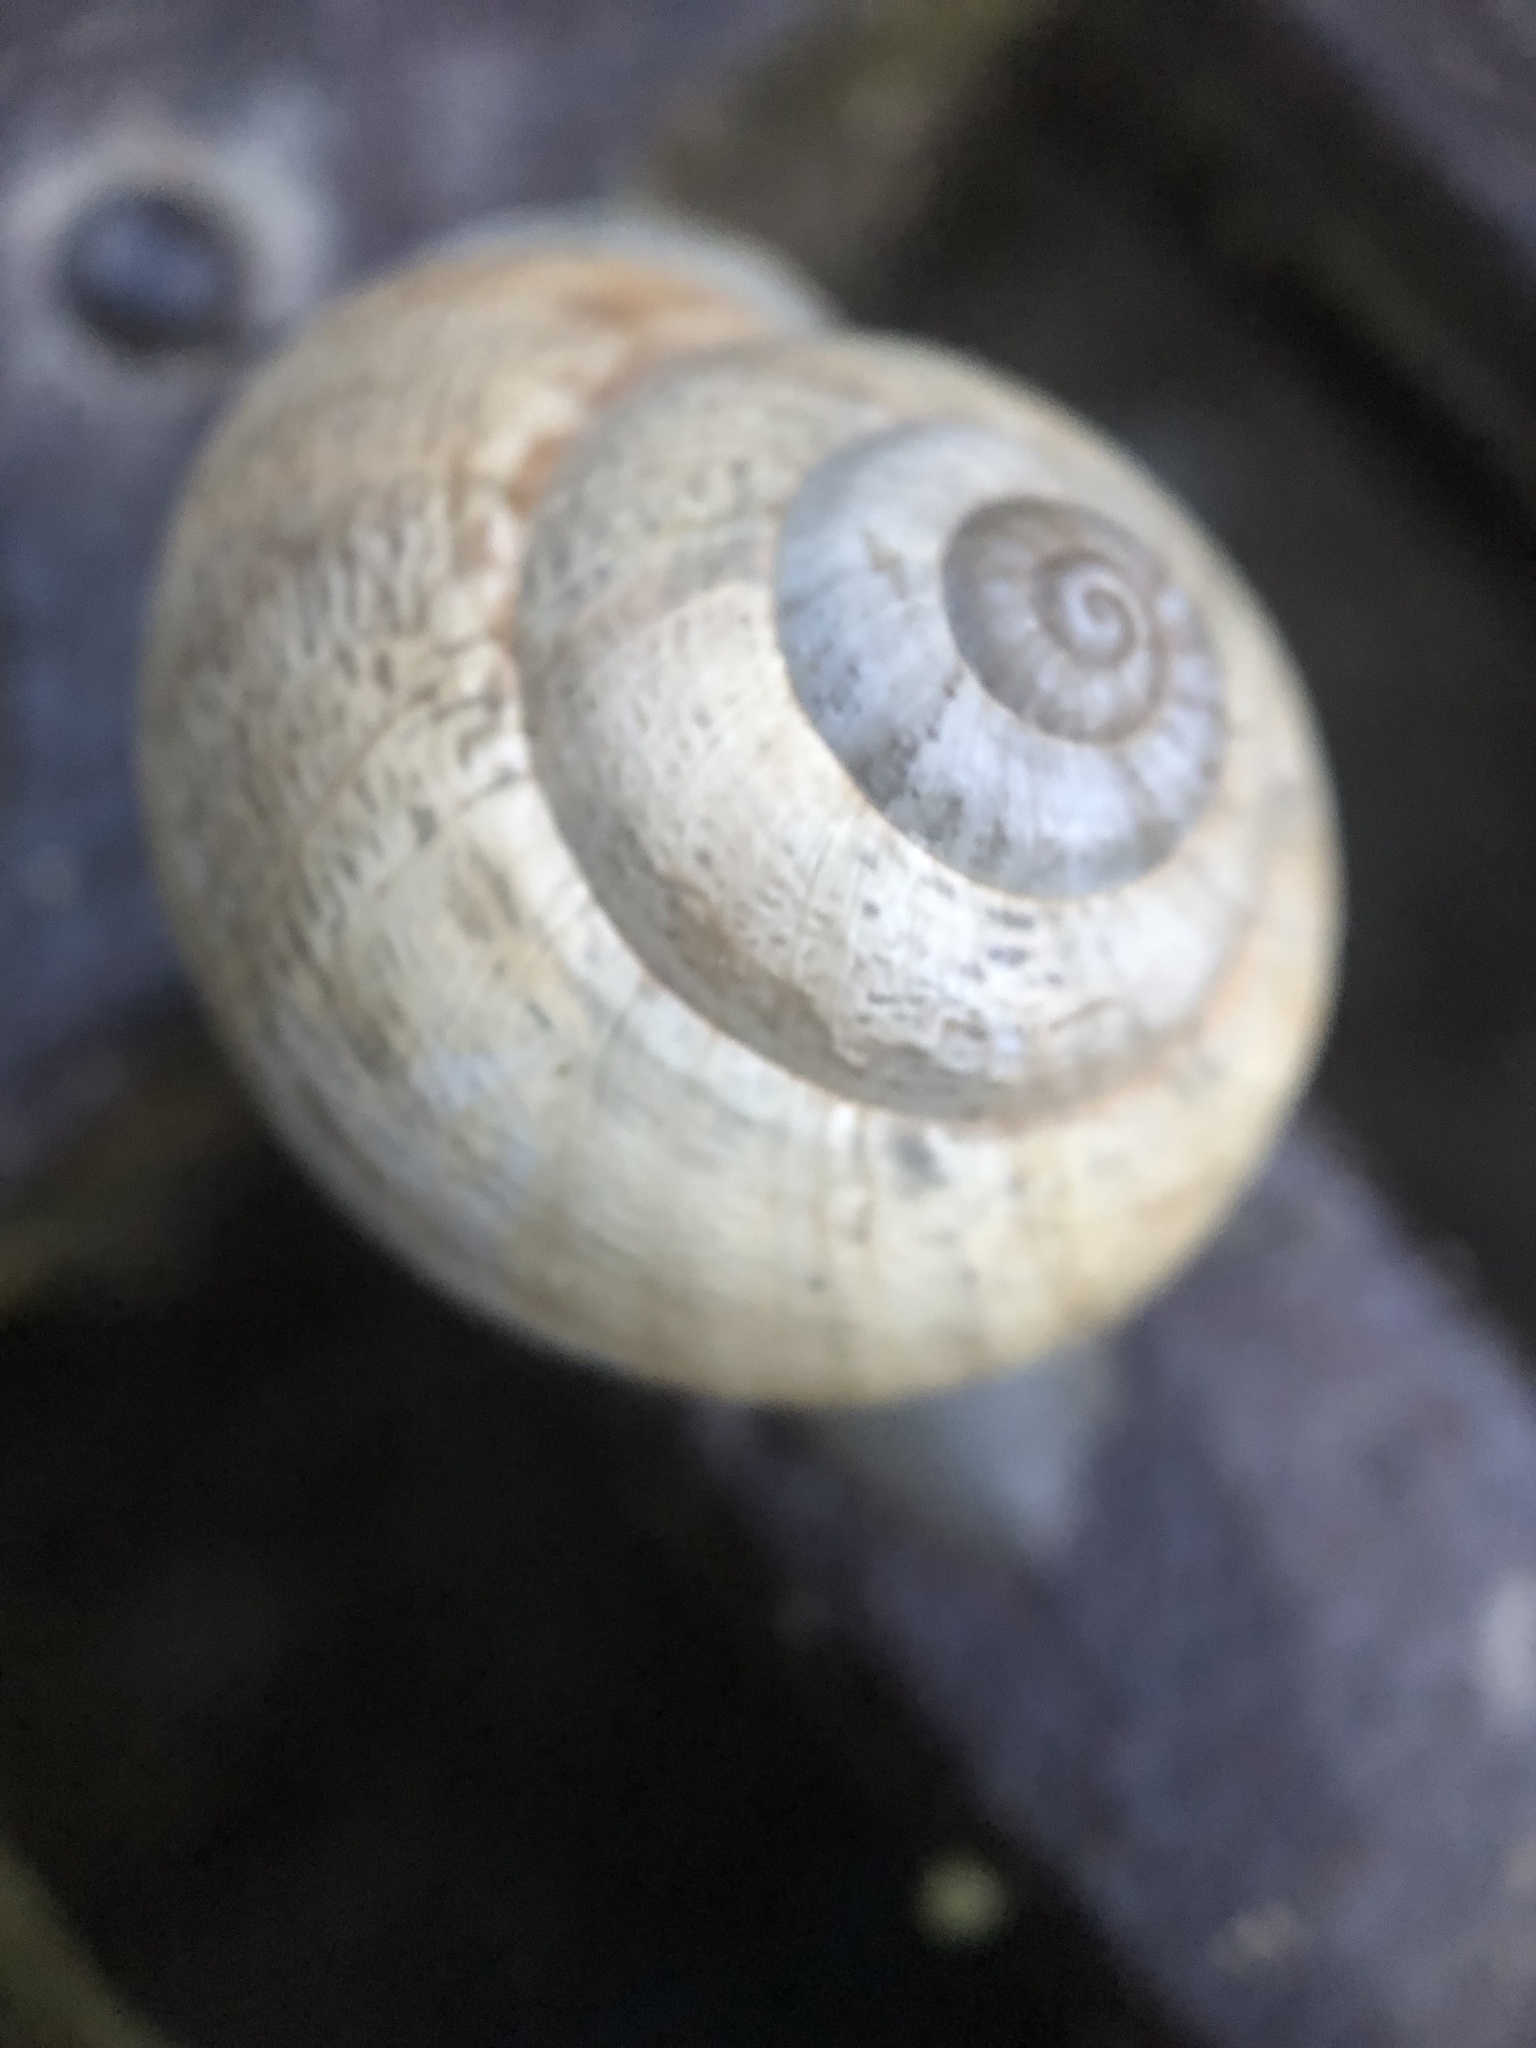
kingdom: Animalia
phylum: Mollusca
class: Gastropoda
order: Stylommatophora
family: Helicidae
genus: Eobania
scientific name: Eobania vermiculata
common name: Chocolateband snail
